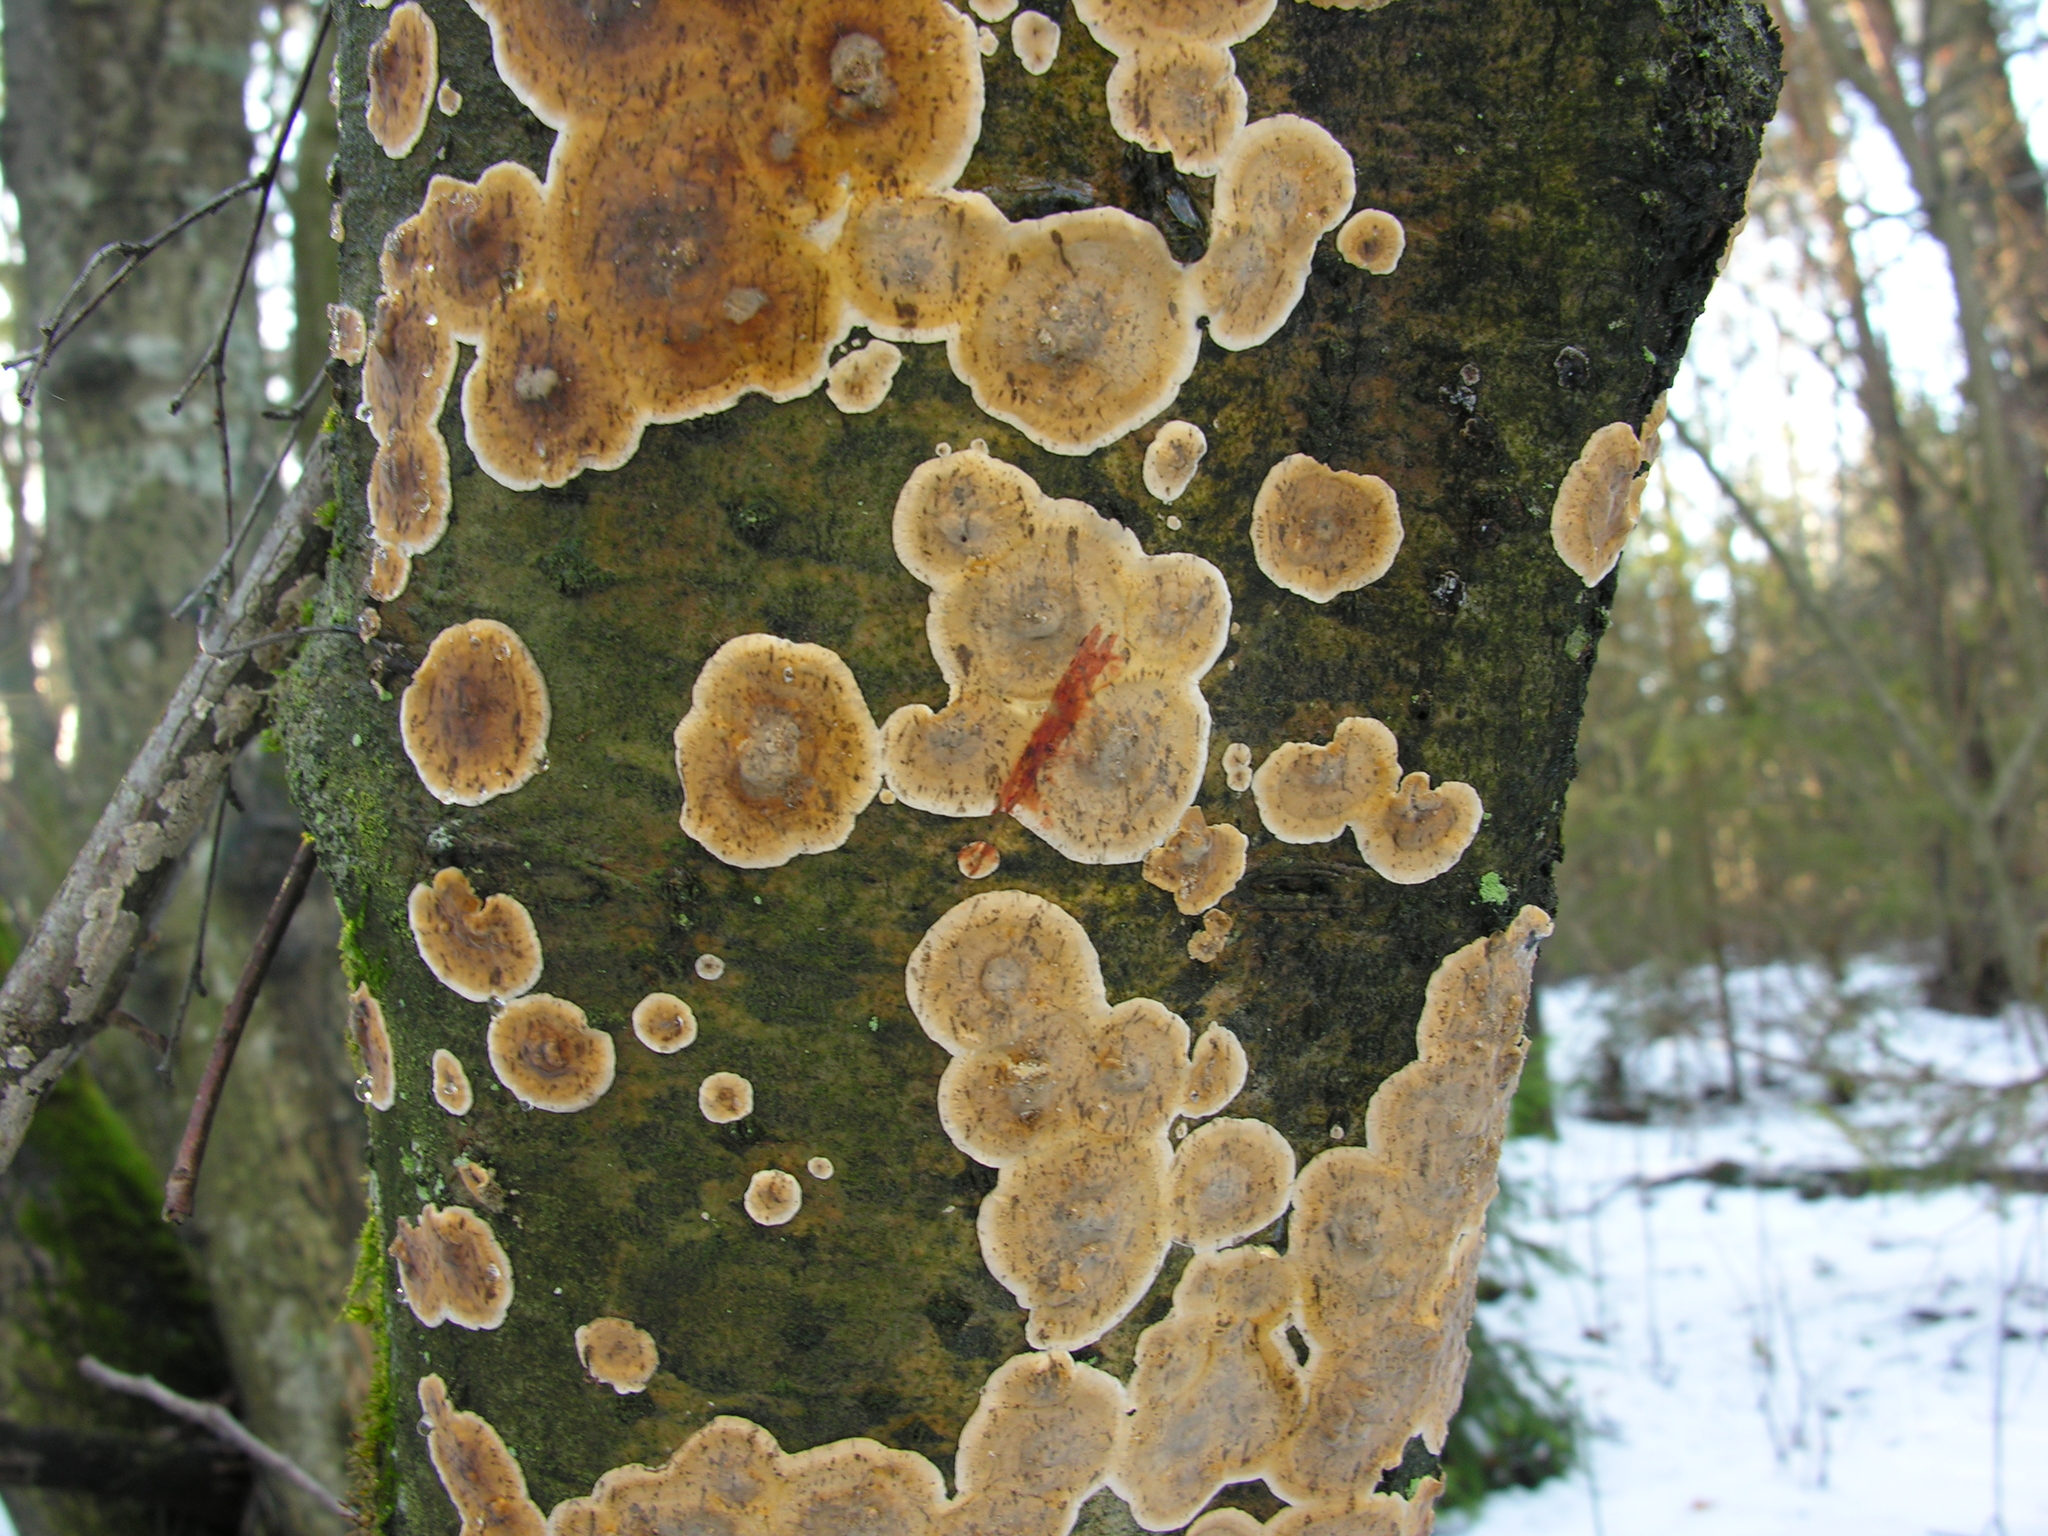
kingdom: Fungi
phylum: Basidiomycota
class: Agaricomycetes
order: Russulales
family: Stereaceae
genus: Stereum
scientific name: Stereum rugosum
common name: Bleeding broadleaf crust
